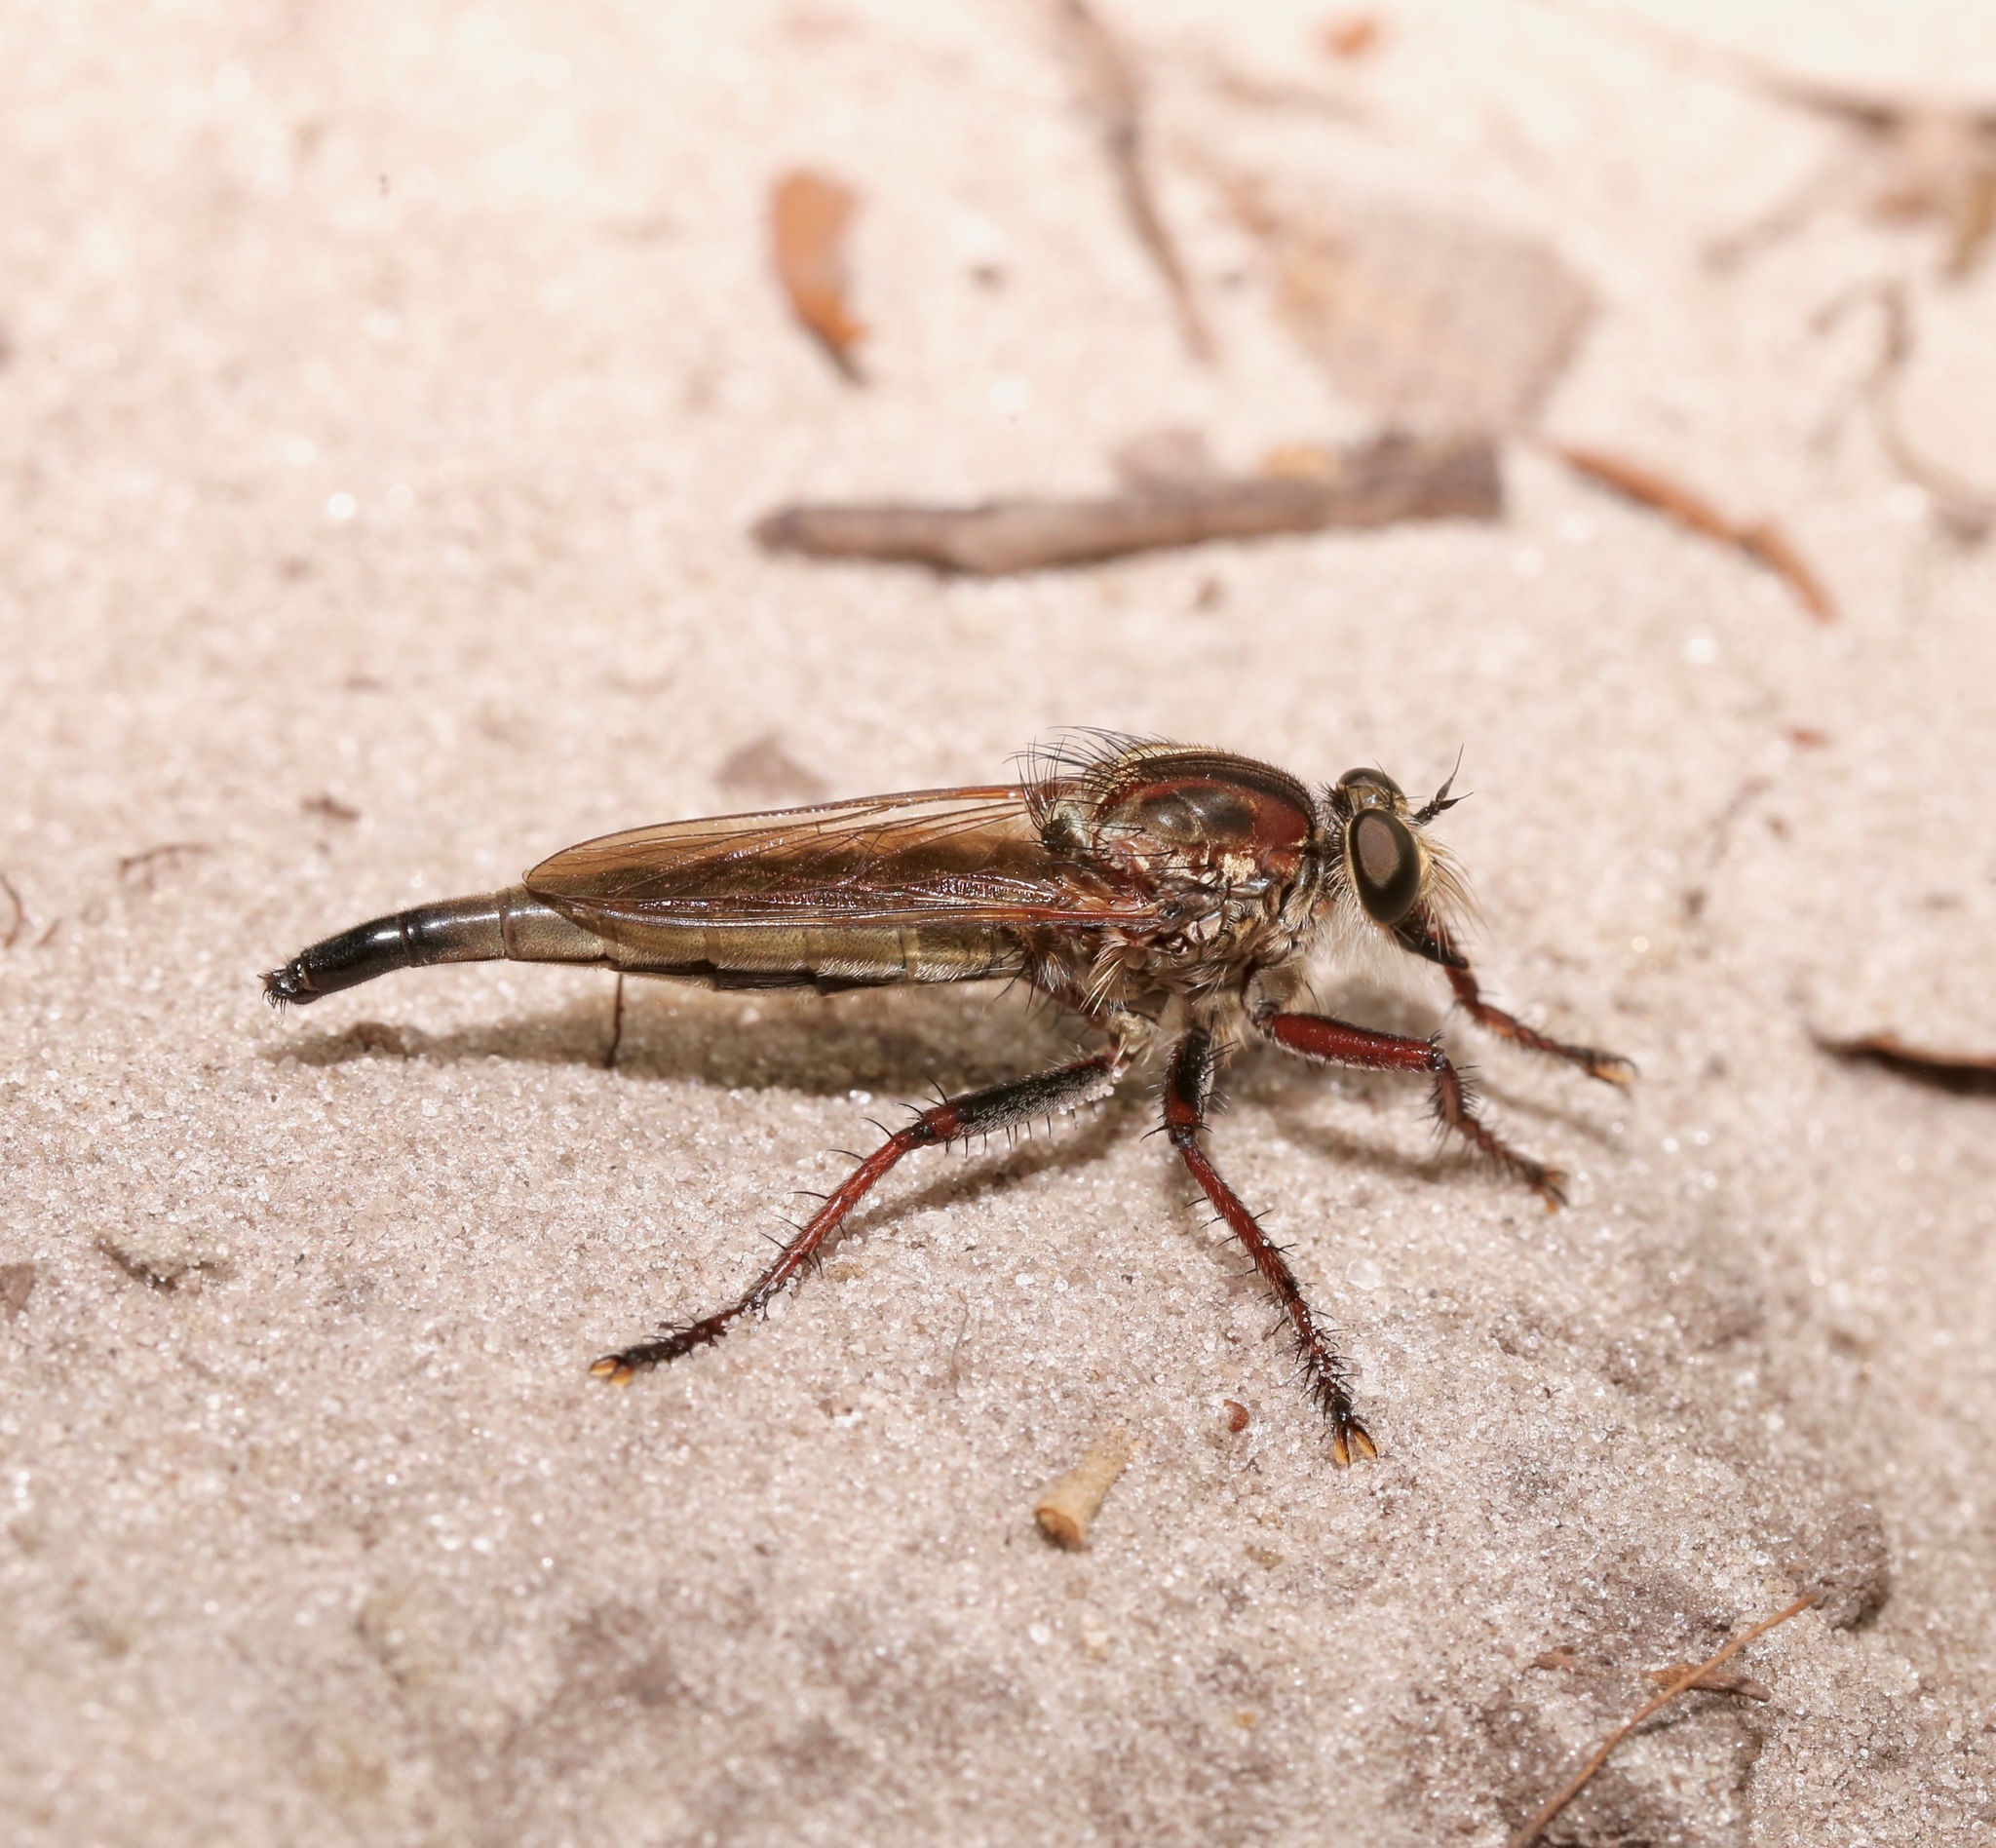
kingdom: Animalia
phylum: Arthropoda
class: Insecta
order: Diptera
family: Asilidae
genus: Proctacanthus
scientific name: Proctacanthus brevipennis
